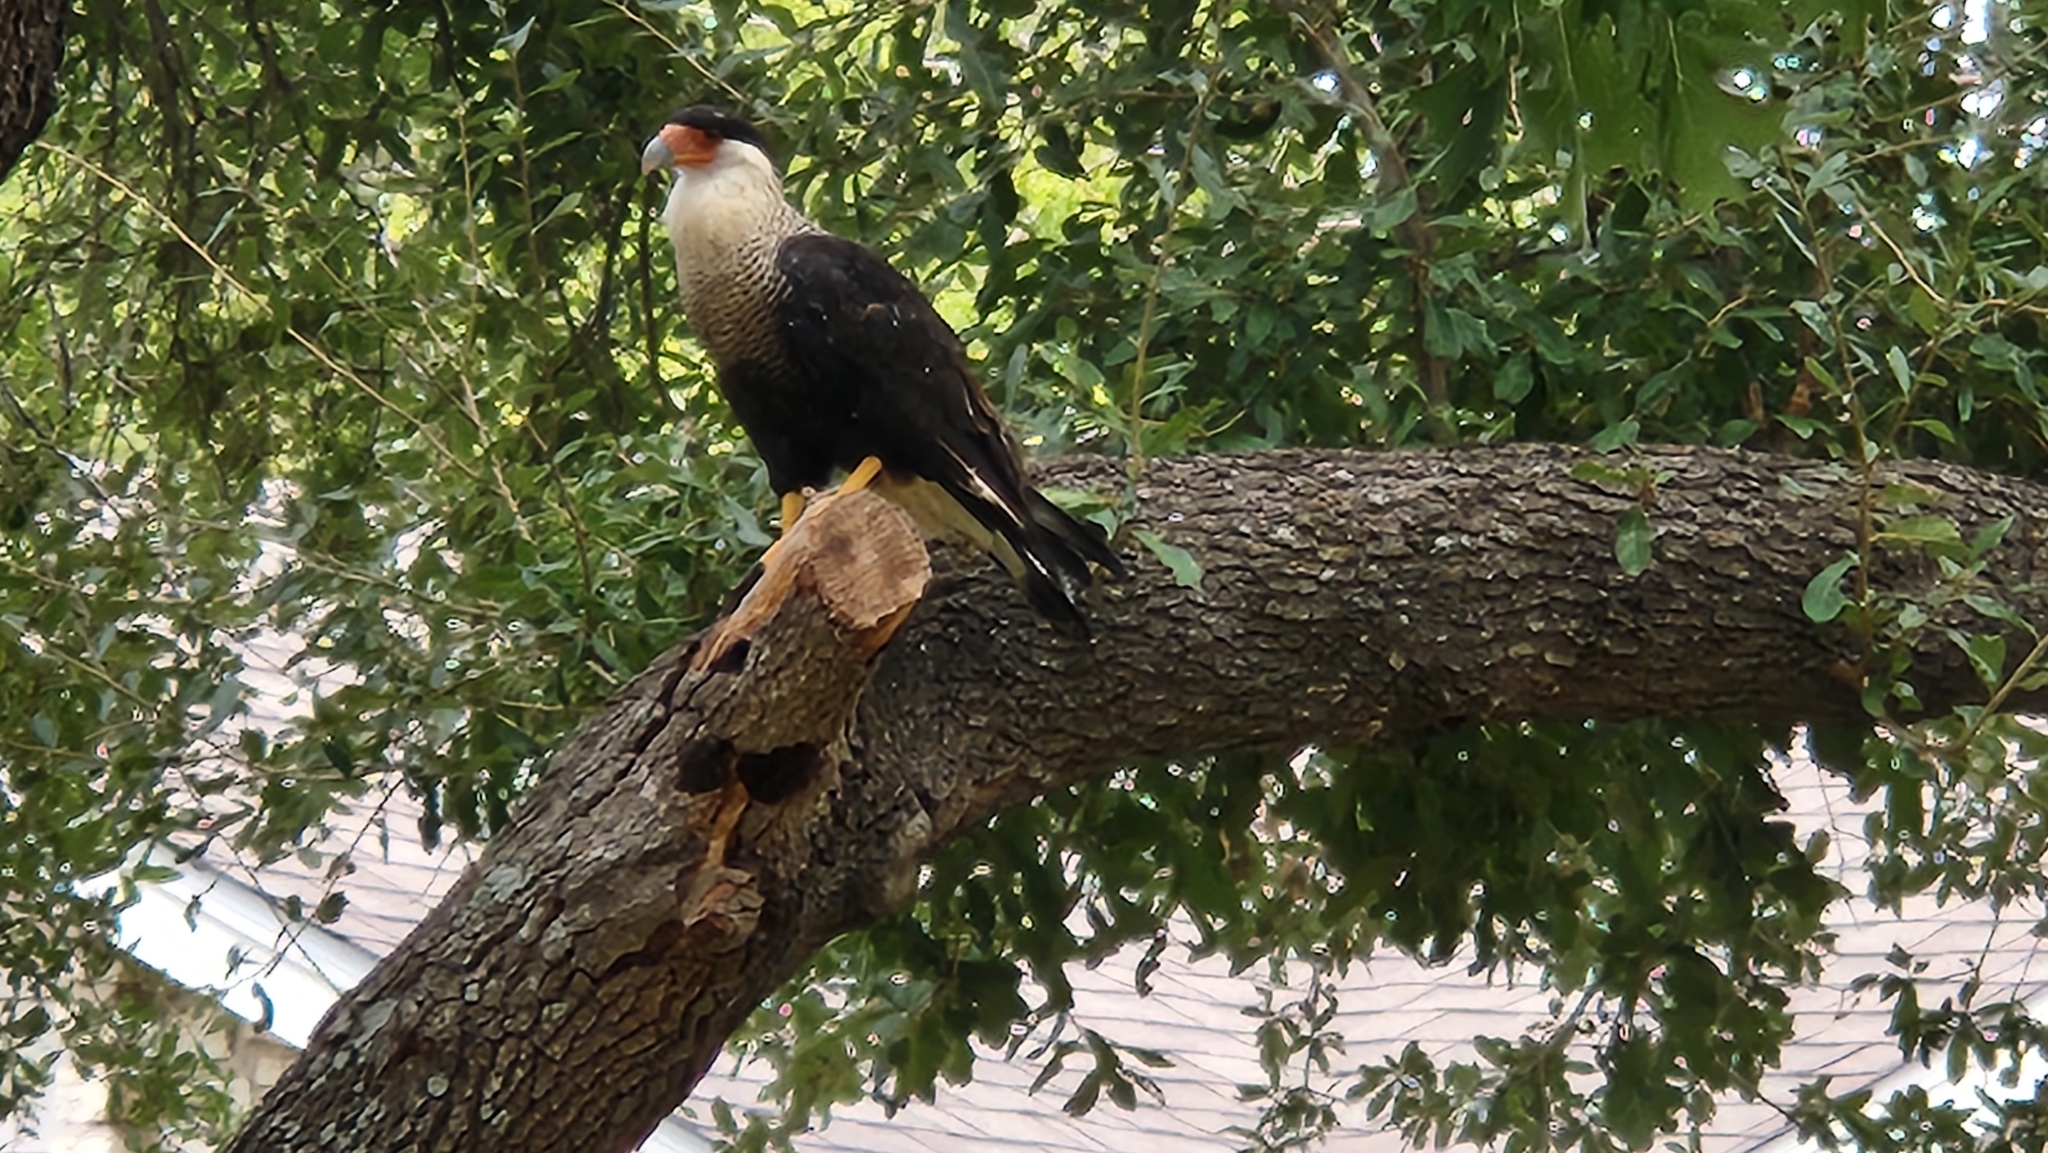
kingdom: Animalia
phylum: Chordata
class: Aves
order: Falconiformes
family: Falconidae
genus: Caracara
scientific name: Caracara plancus
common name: Southern caracara
